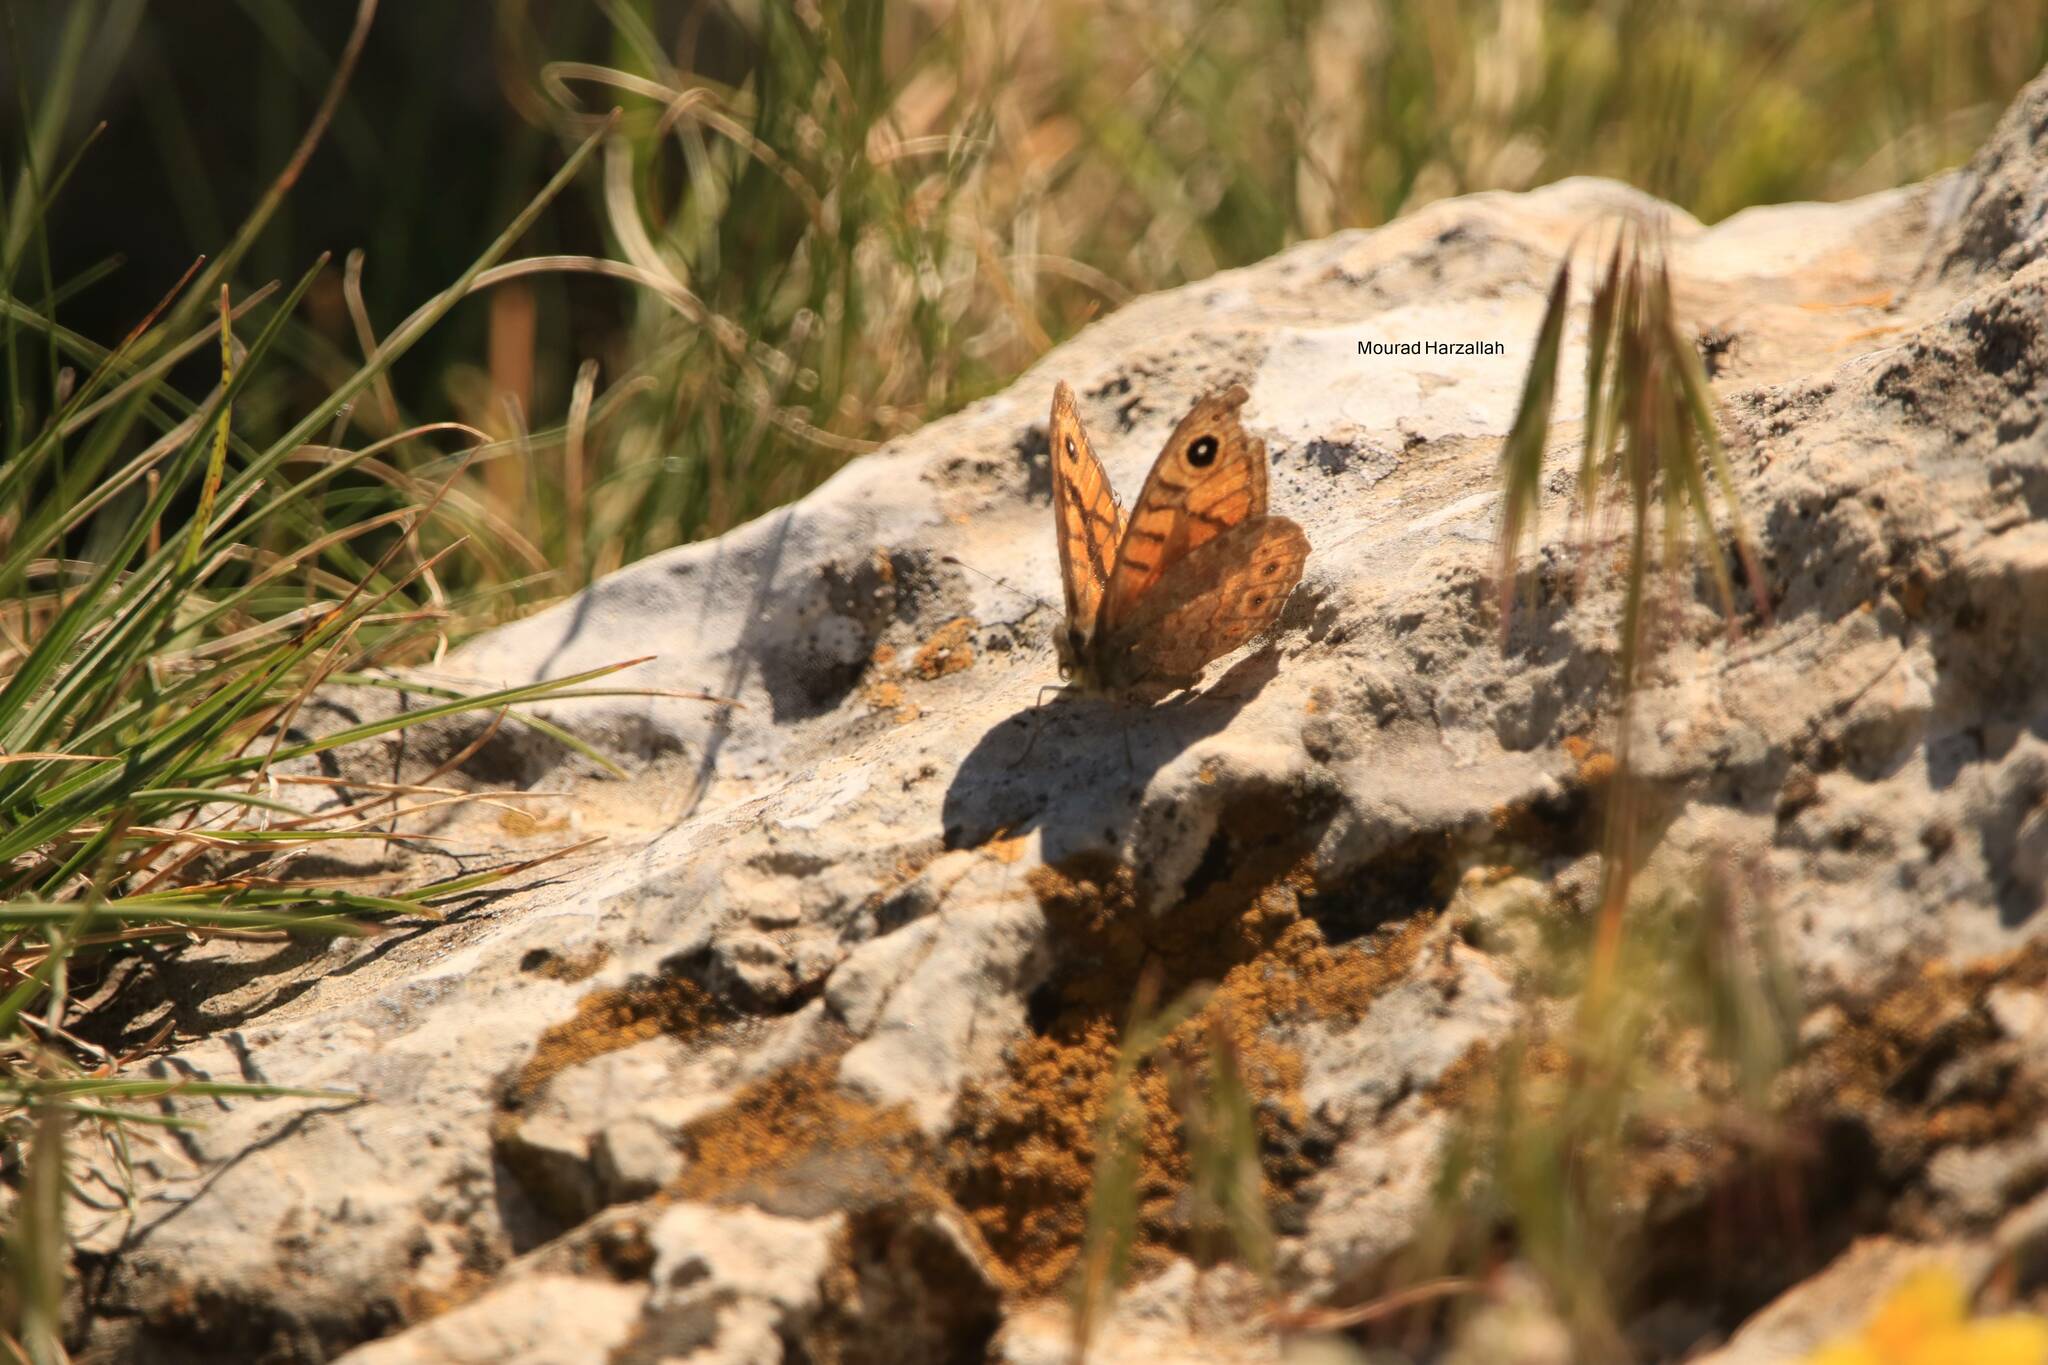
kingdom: Animalia
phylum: Arthropoda
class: Insecta
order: Lepidoptera
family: Nymphalidae
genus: Pararge
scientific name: Pararge Lasiommata megera
